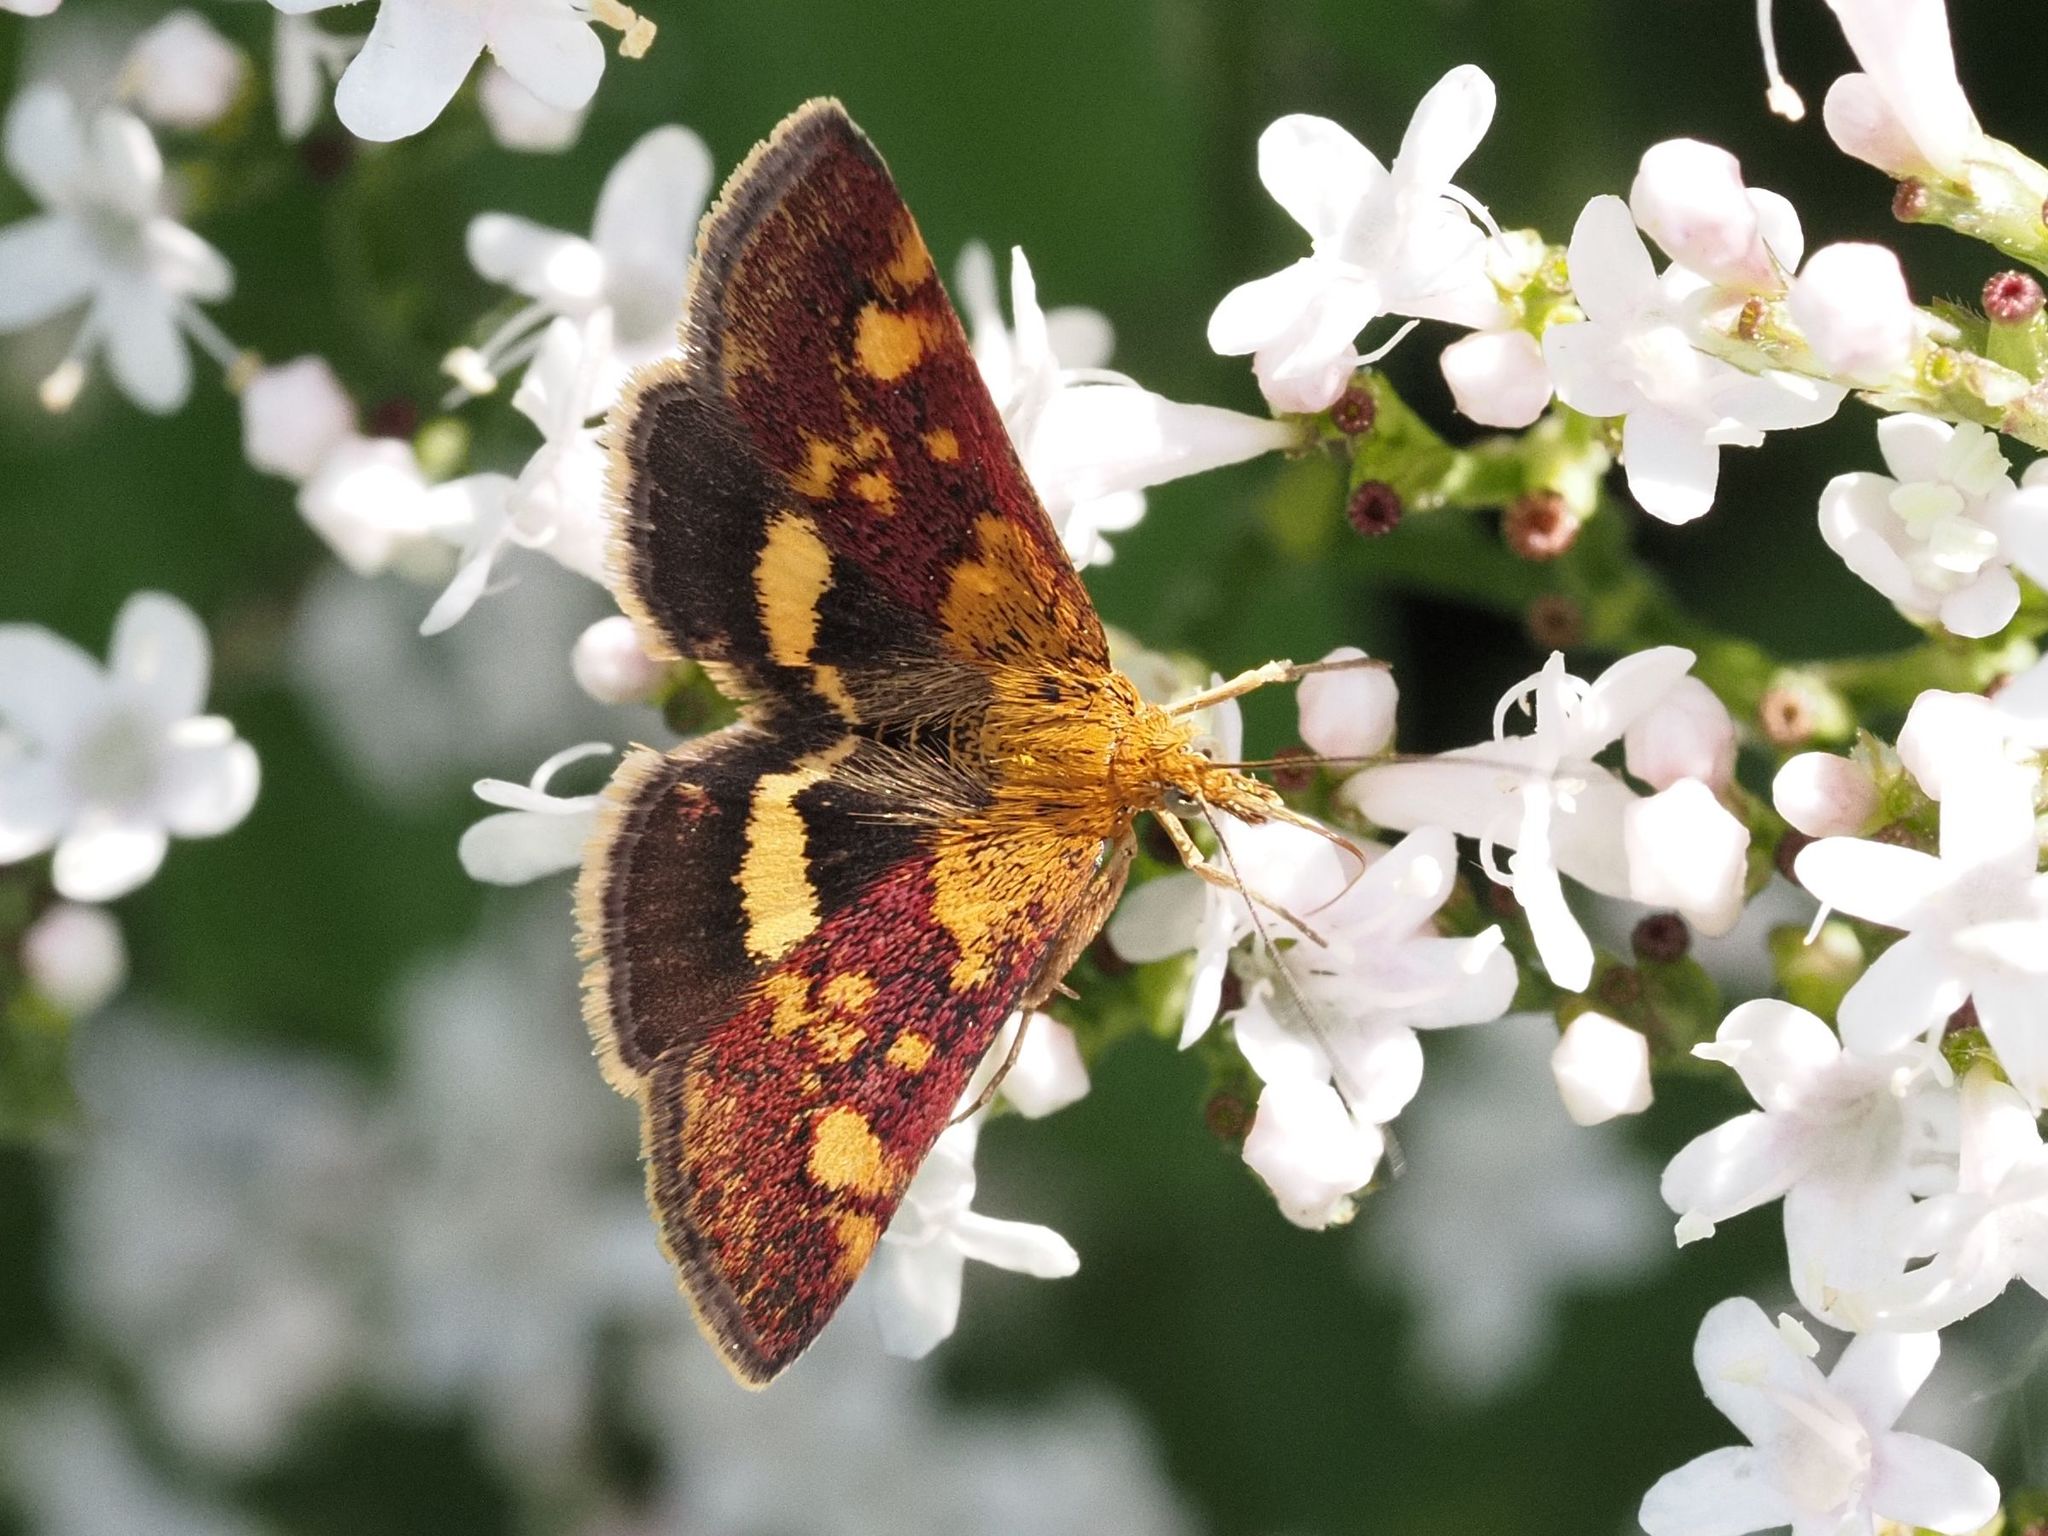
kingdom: Animalia
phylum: Arthropoda
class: Insecta
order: Lepidoptera
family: Crambidae
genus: Pyrausta
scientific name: Pyrausta aurata
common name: Small purple & gold
